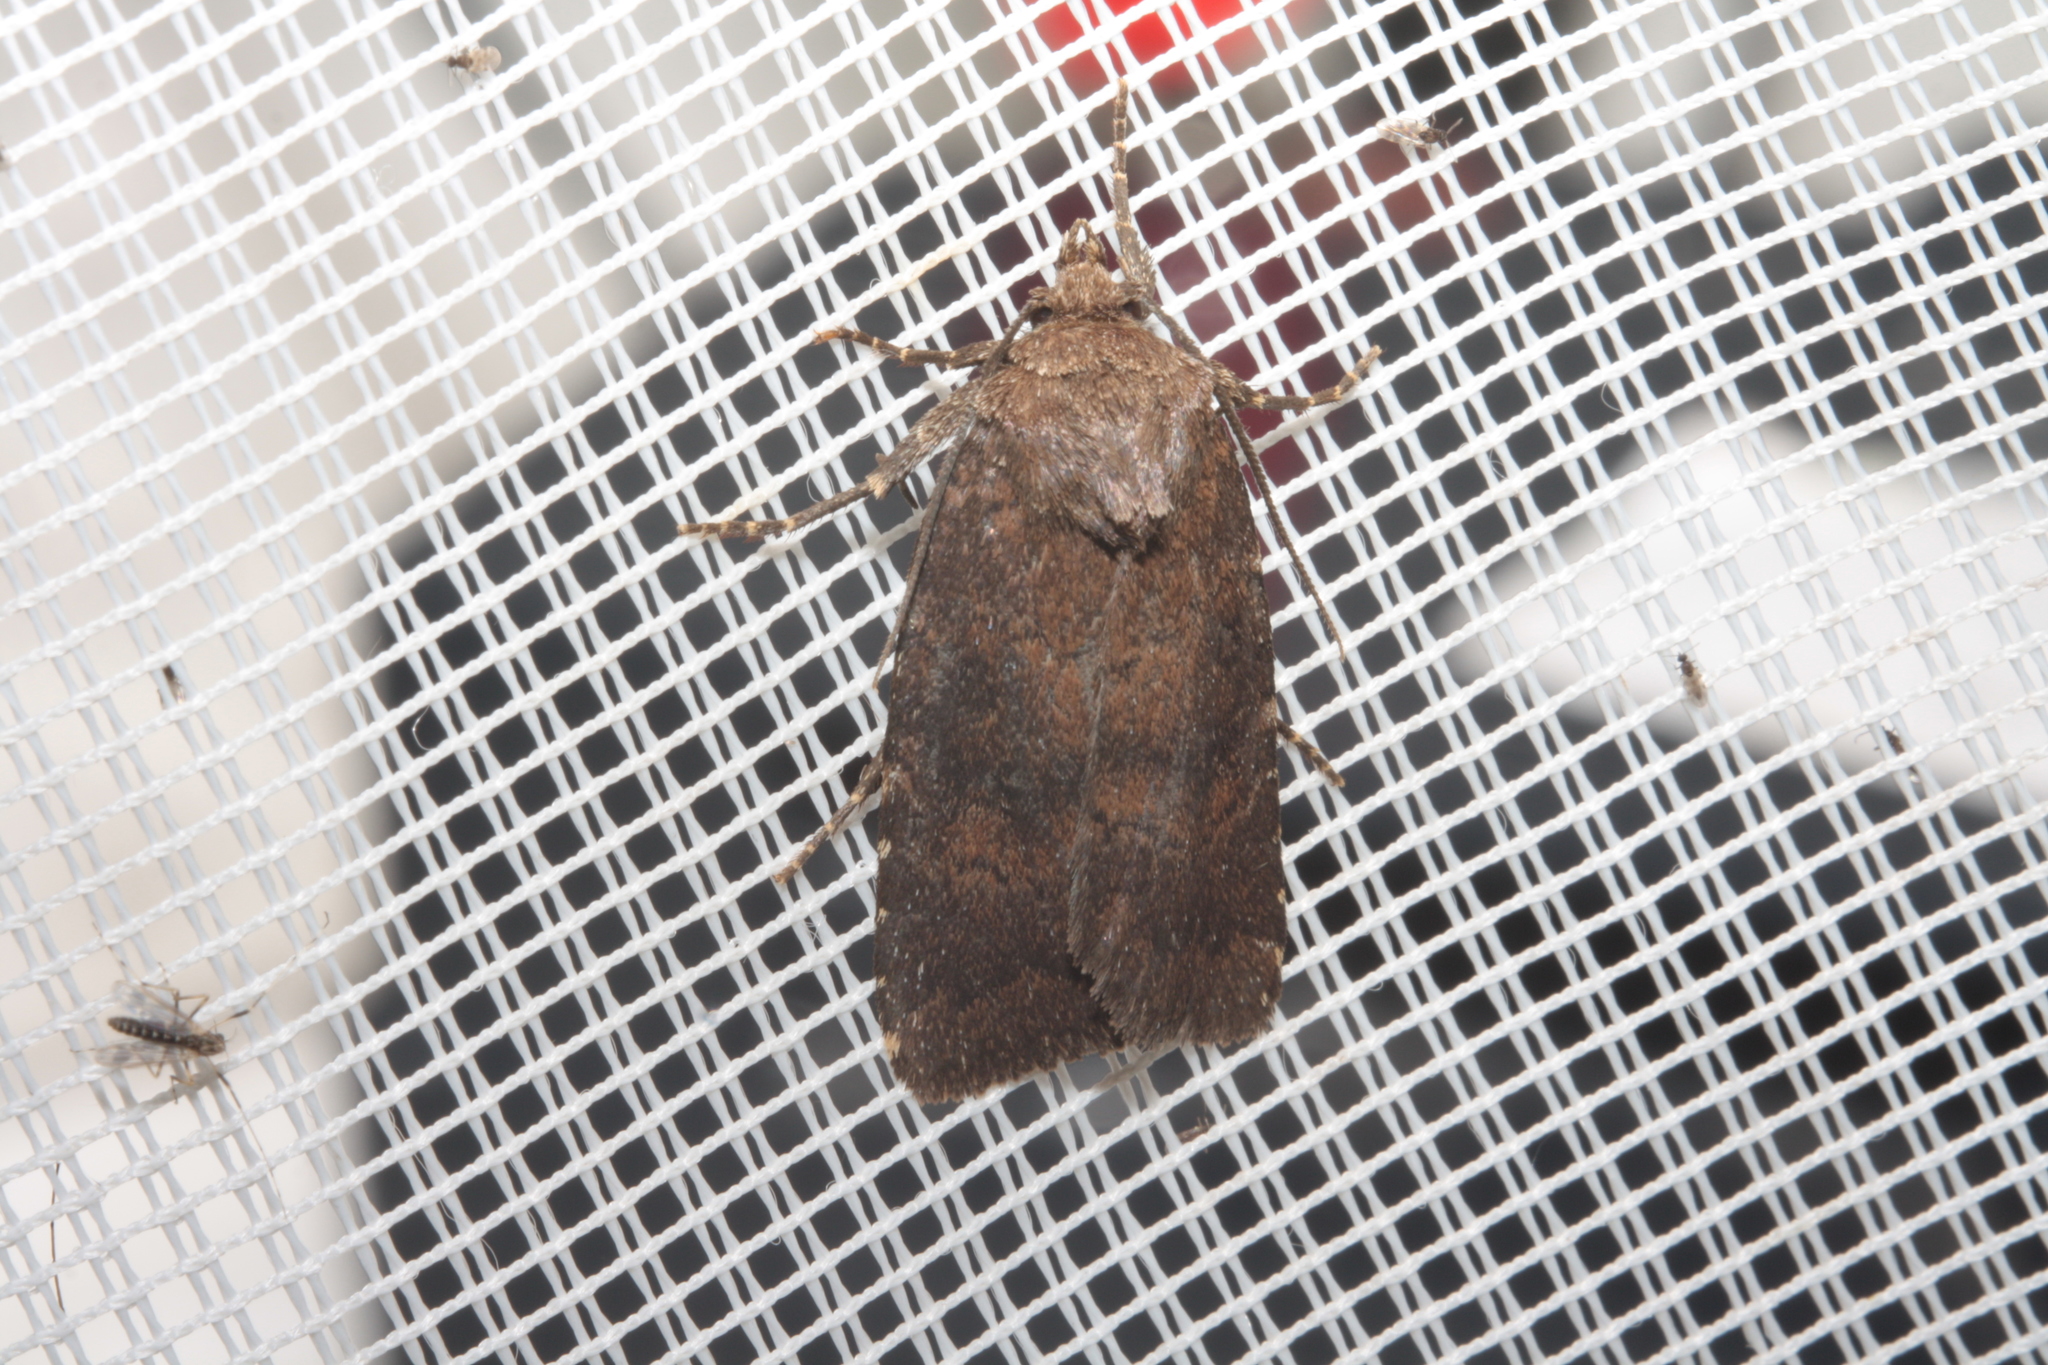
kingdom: Animalia
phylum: Arthropoda
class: Insecta
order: Lepidoptera
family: Noctuidae
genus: Charanyca
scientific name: Charanyca ferruginea
